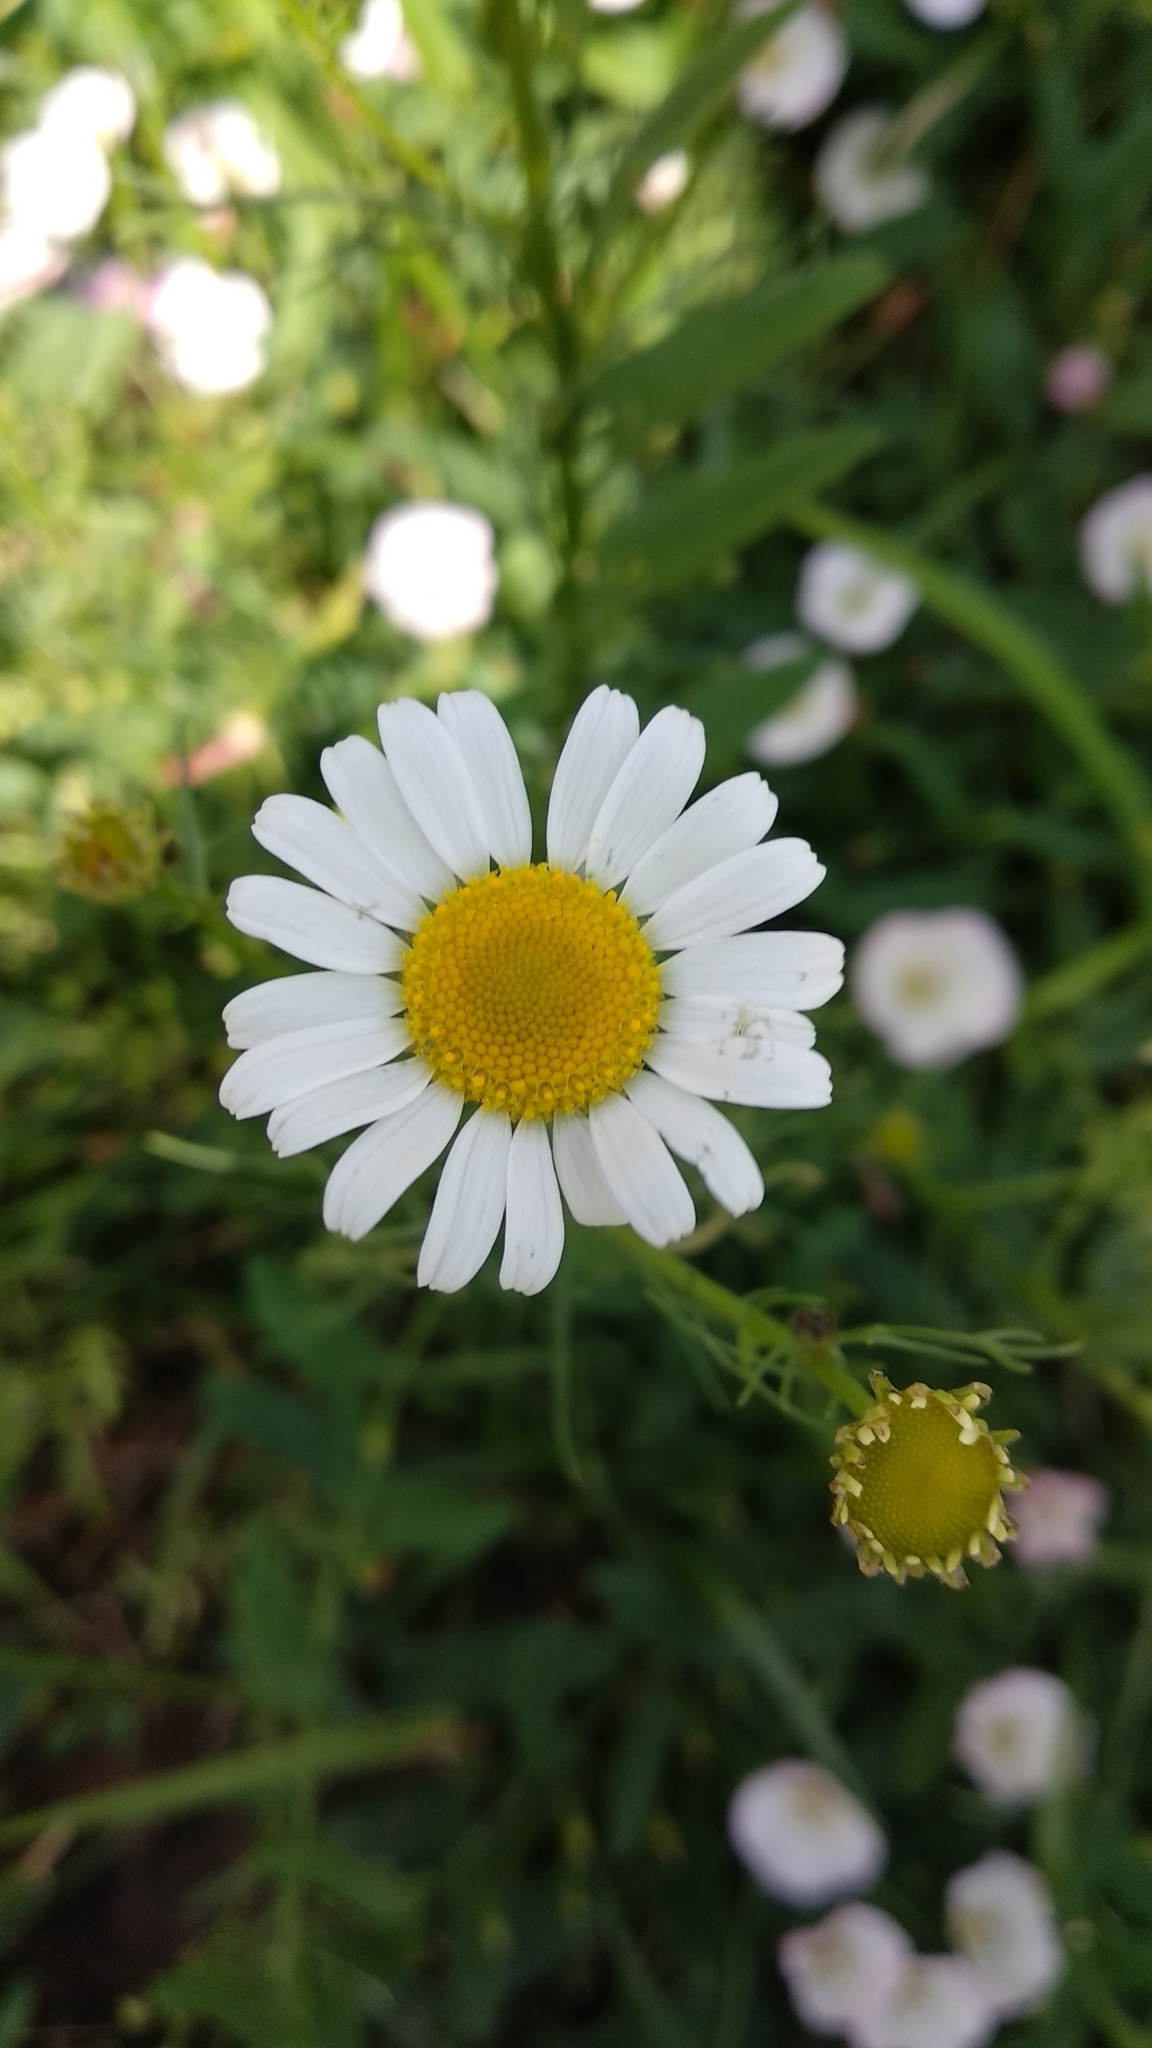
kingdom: Plantae
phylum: Tracheophyta
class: Magnoliopsida
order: Asterales
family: Asteraceae
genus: Tripleurospermum
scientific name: Tripleurospermum inodorum
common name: Scentless mayweed
